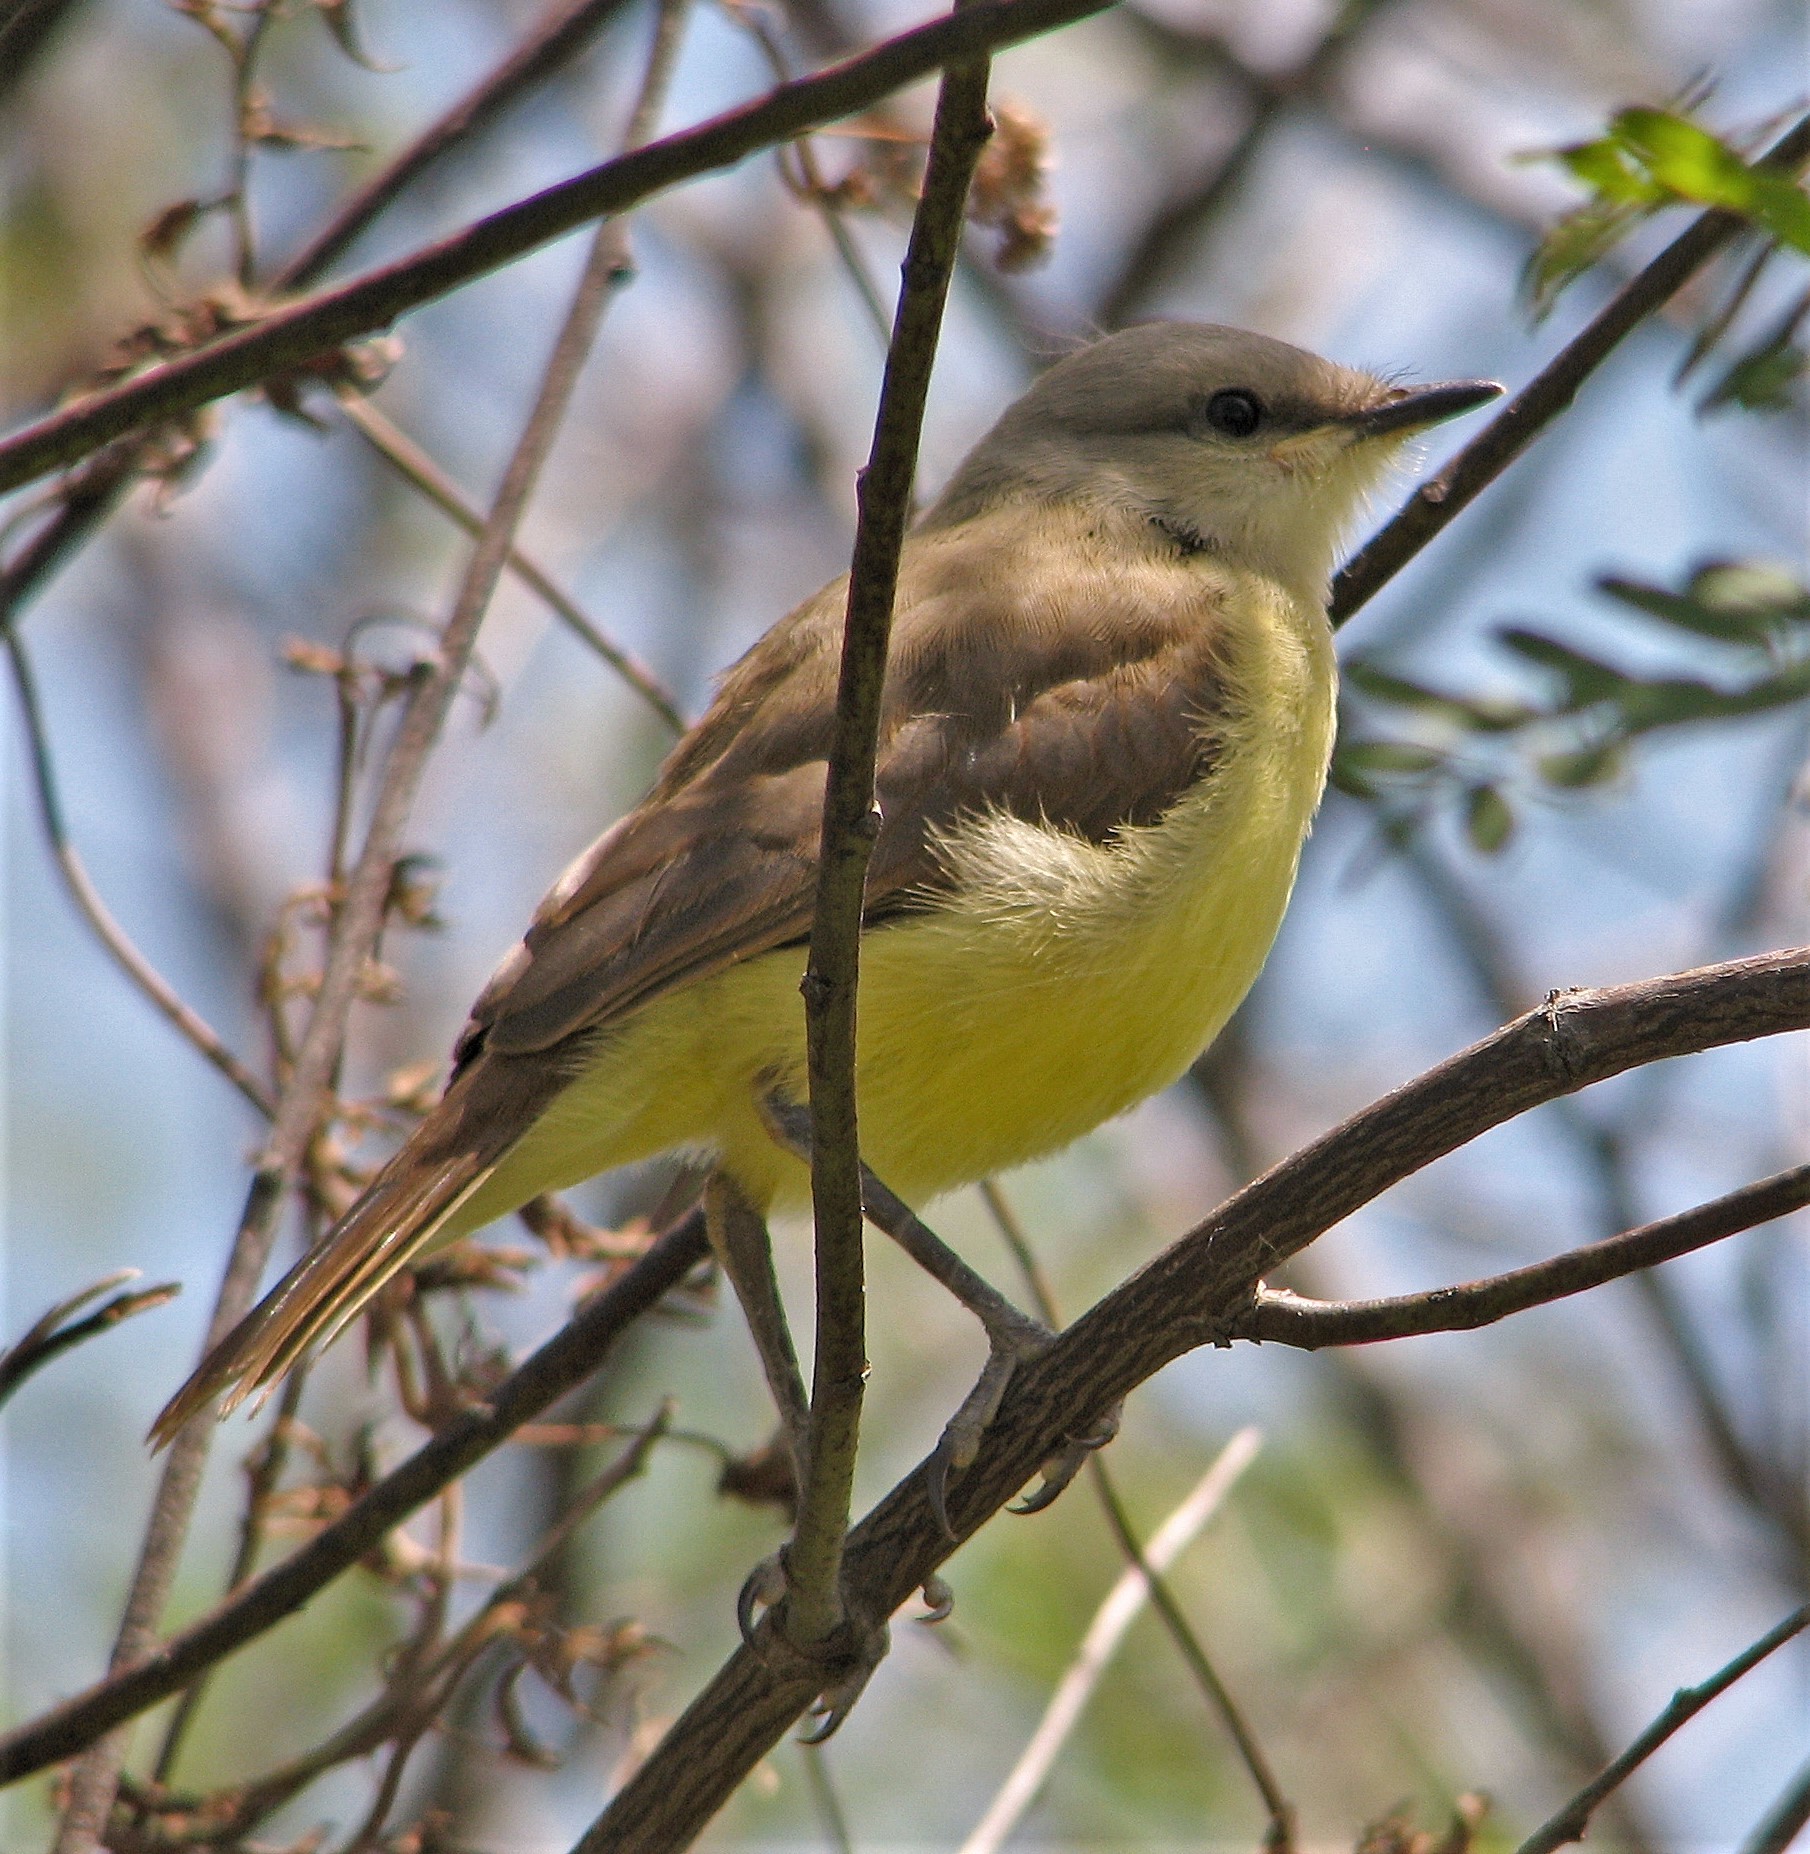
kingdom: Animalia
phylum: Chordata
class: Aves
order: Passeriformes
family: Tyrannidae
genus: Machetornis
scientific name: Machetornis rixosa
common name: Cattle tyrant
